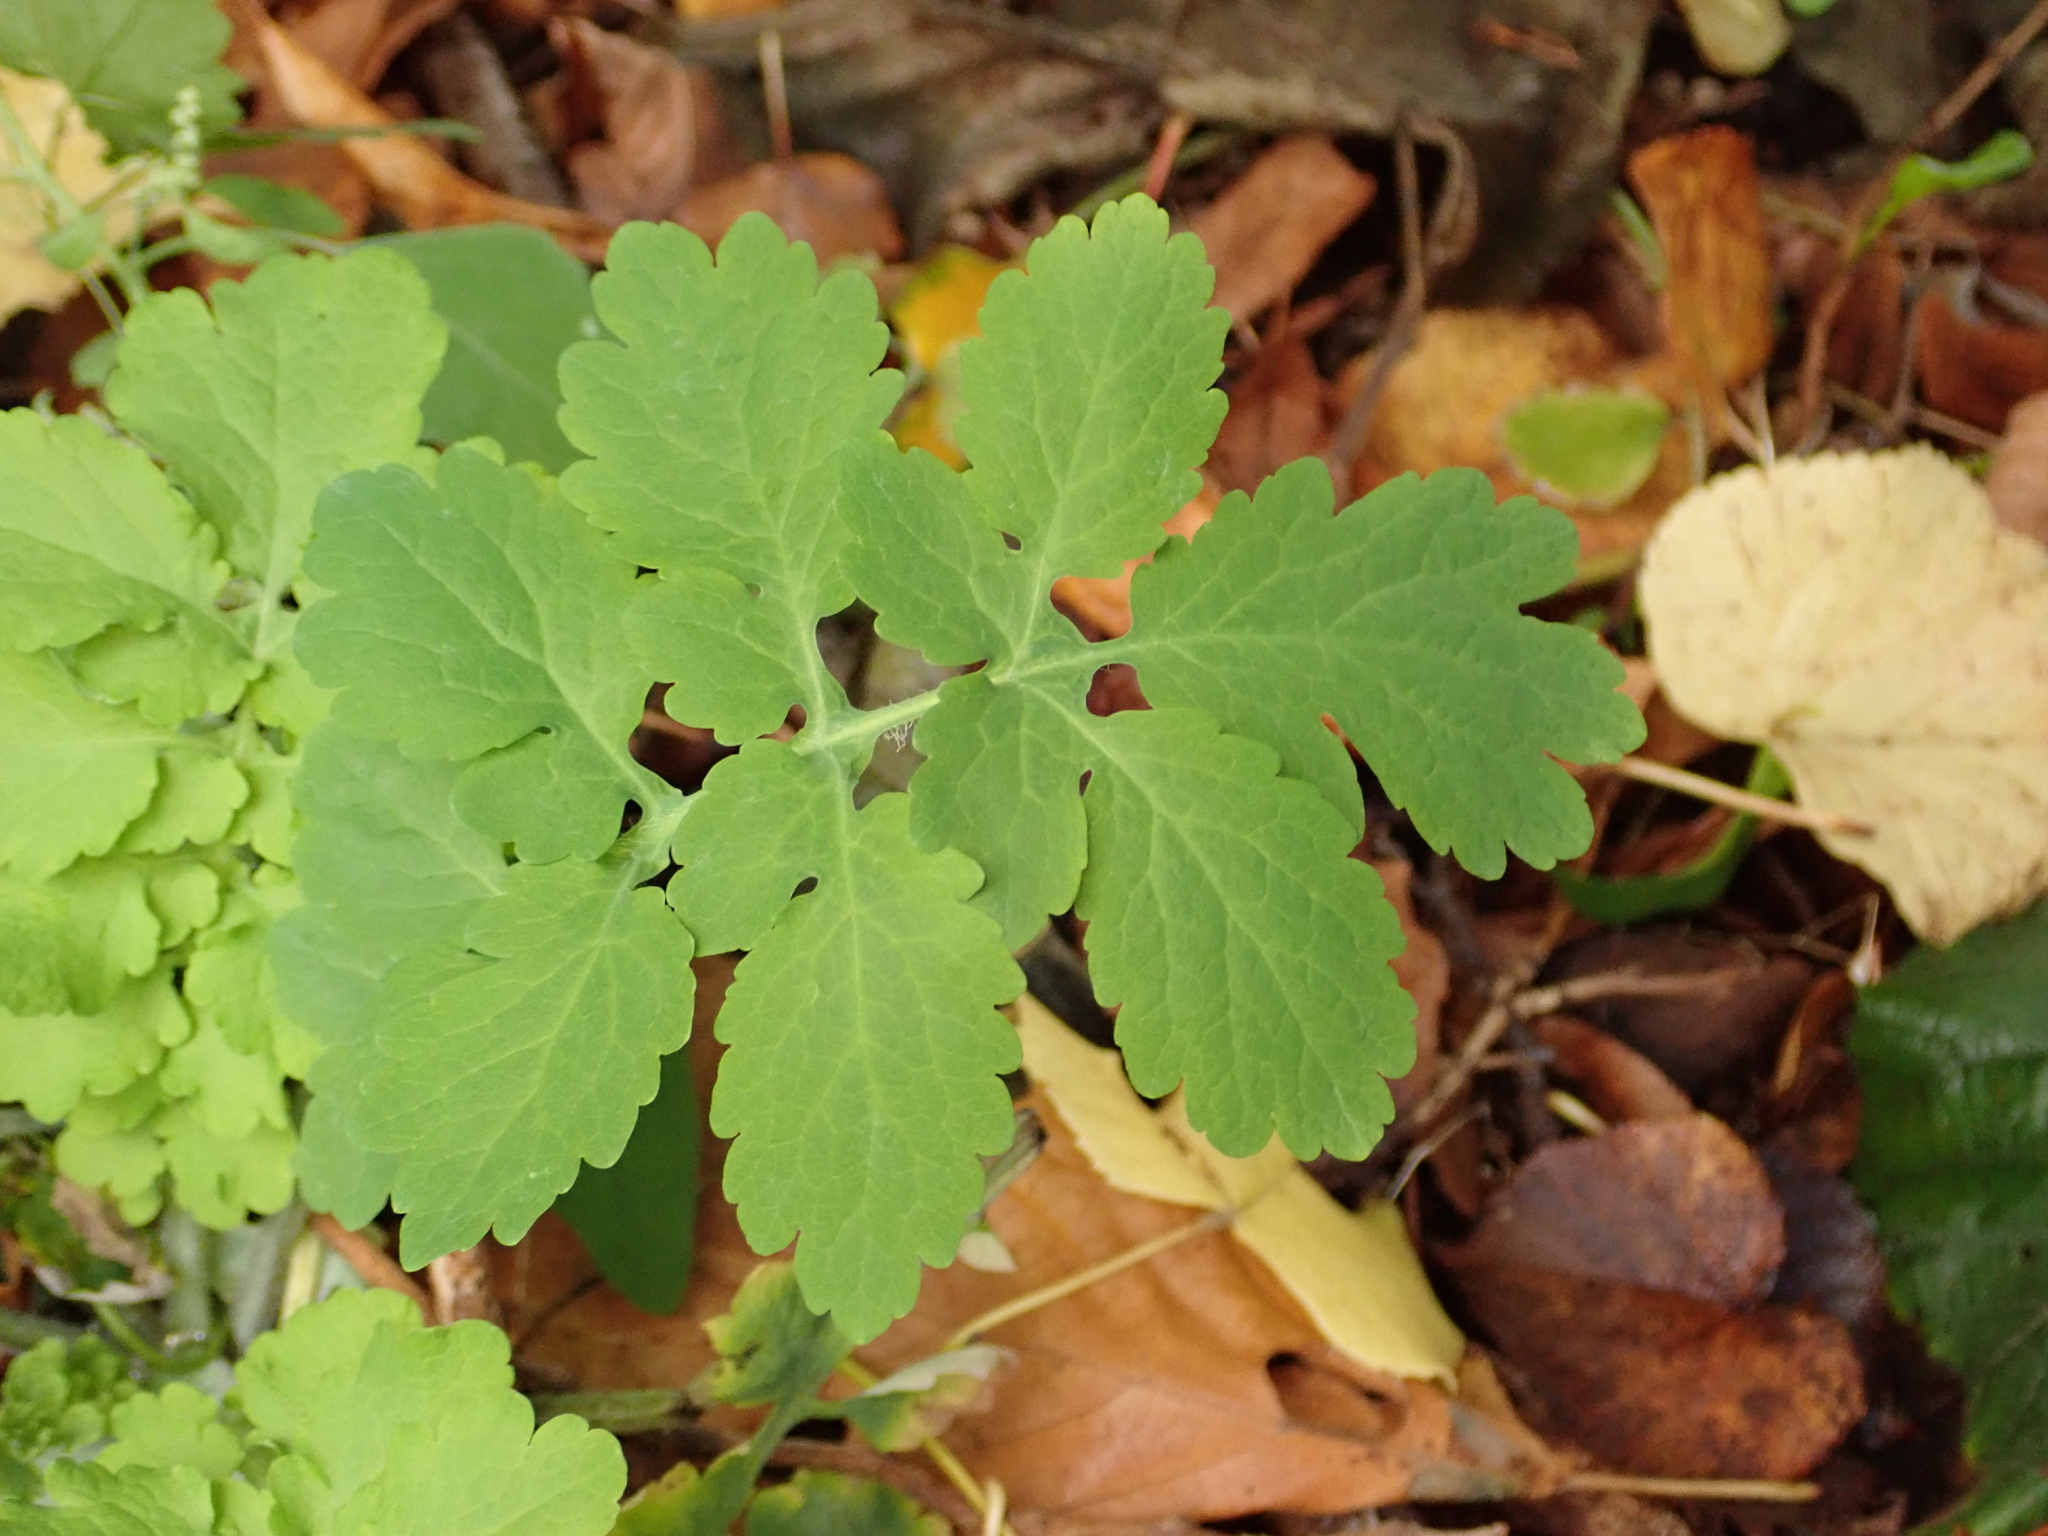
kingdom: Plantae
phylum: Tracheophyta
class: Magnoliopsida
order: Ranunculales
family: Papaveraceae
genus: Chelidonium
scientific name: Chelidonium majus
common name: Greater celandine
